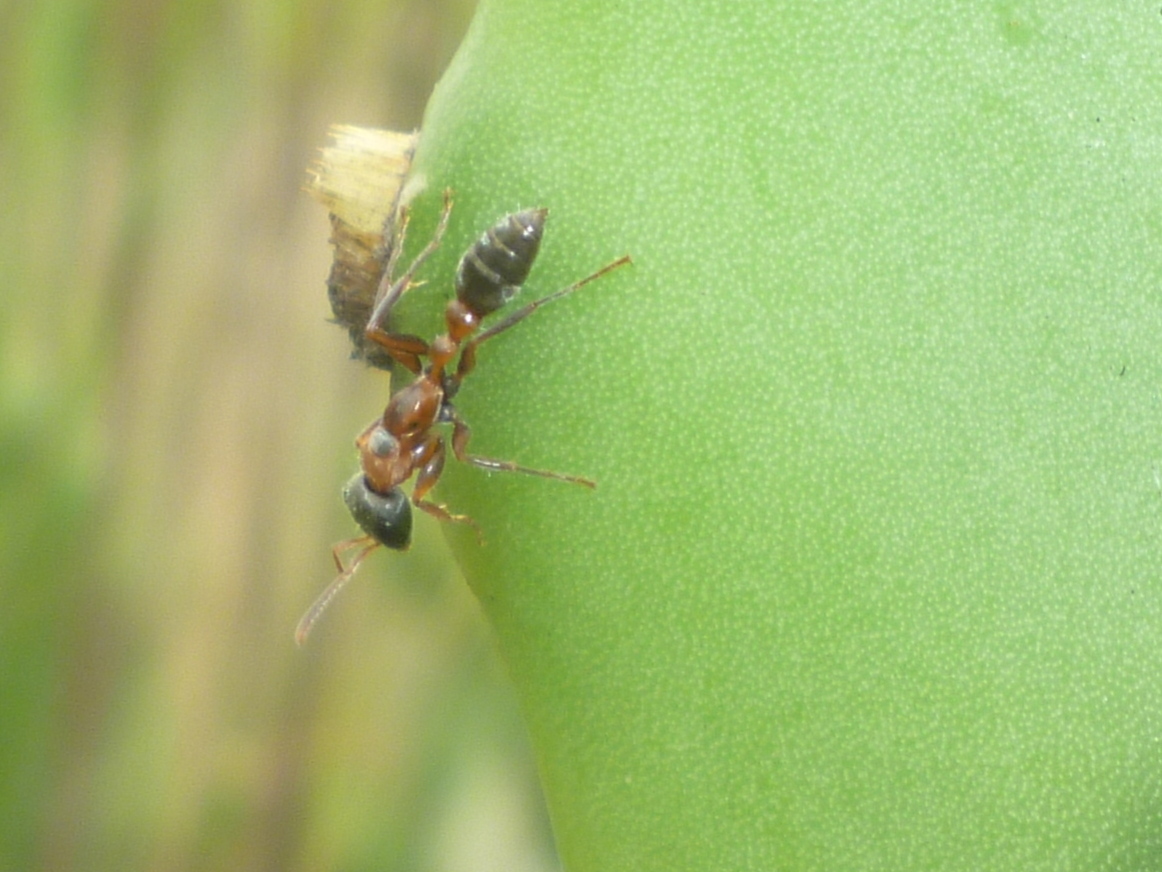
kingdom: Animalia
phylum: Arthropoda
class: Insecta
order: Hymenoptera
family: Formicidae
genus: Pseudomyrmex
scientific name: Pseudomyrmex gracilis
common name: Graceful twig ant
